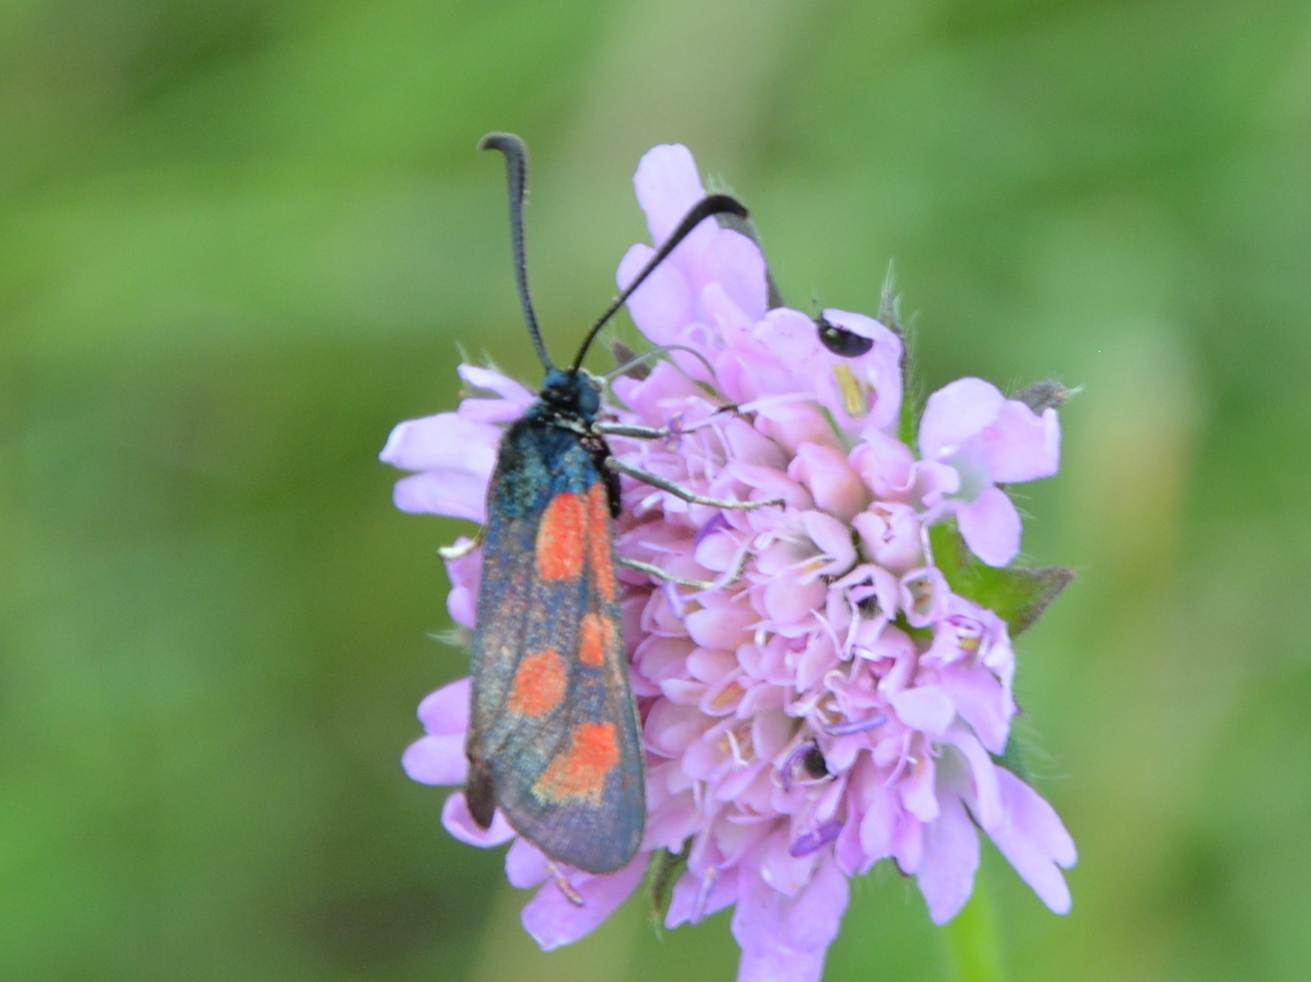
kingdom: Animalia
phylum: Arthropoda
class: Insecta
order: Lepidoptera
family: Zygaenidae
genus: Zygaena
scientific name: Zygaena loti
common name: Slender scotch burnet
